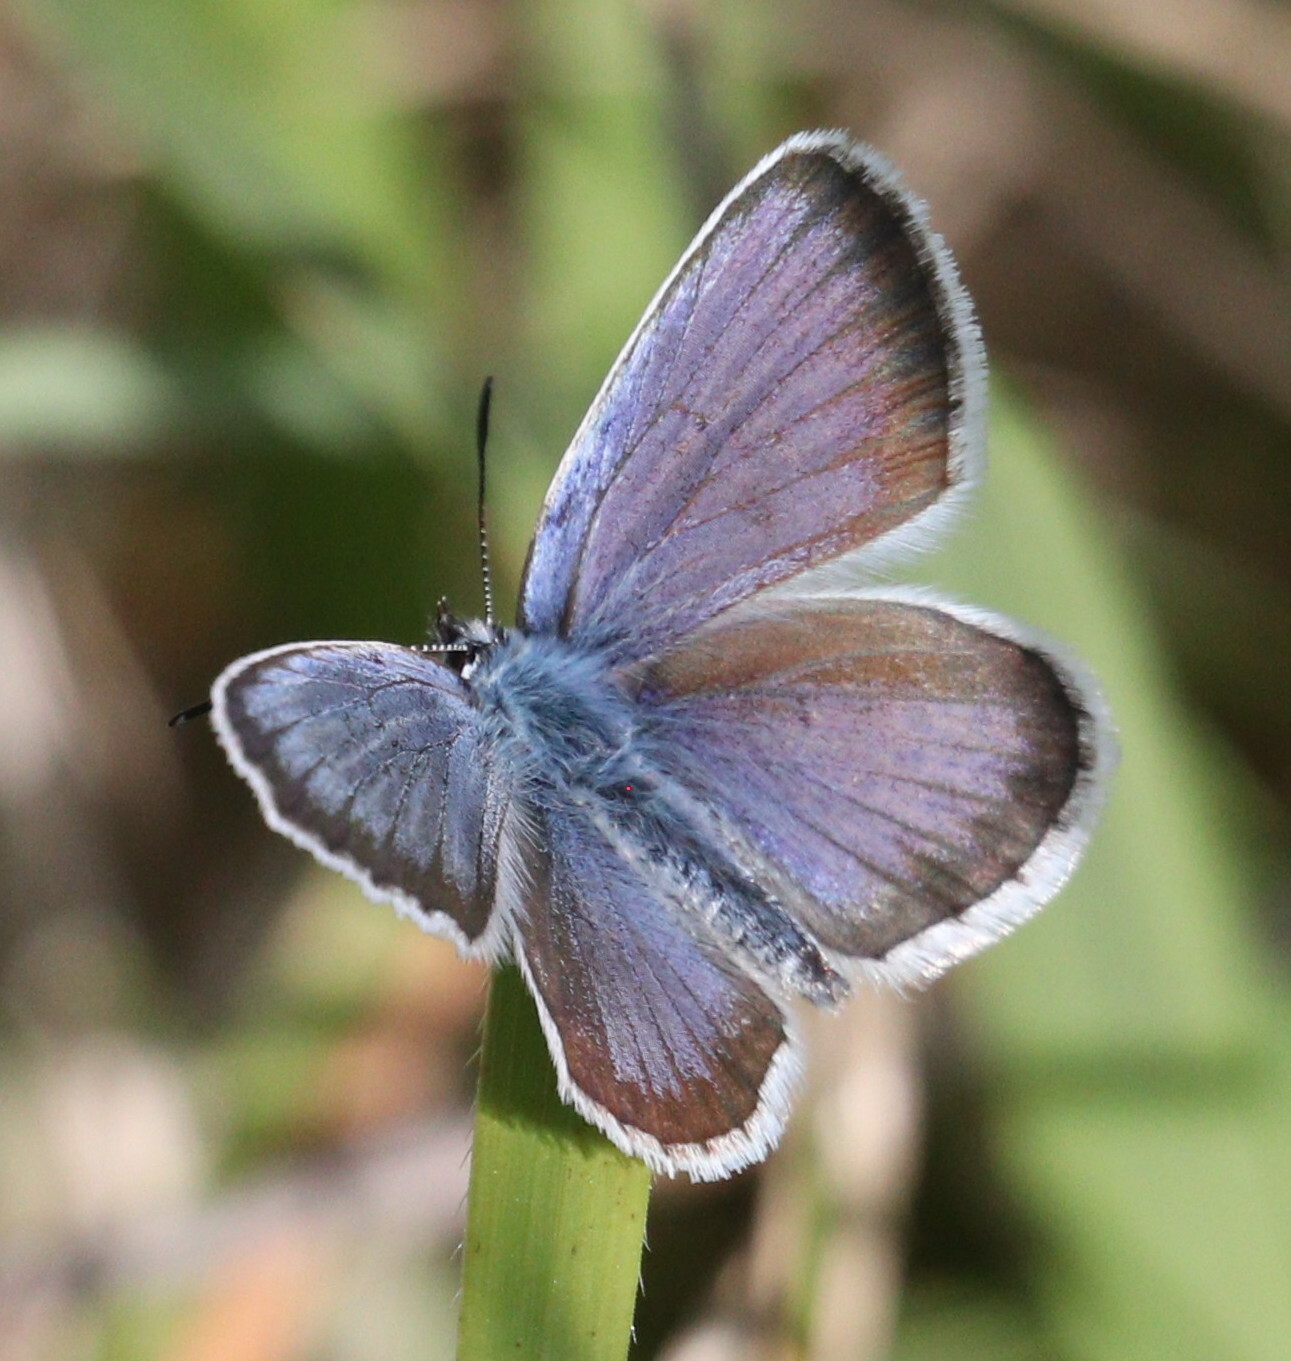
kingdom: Animalia
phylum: Arthropoda
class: Insecta
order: Lepidoptera
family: Lycaenidae
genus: Plebejus
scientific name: Plebejus argus
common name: Silver-studded blue
